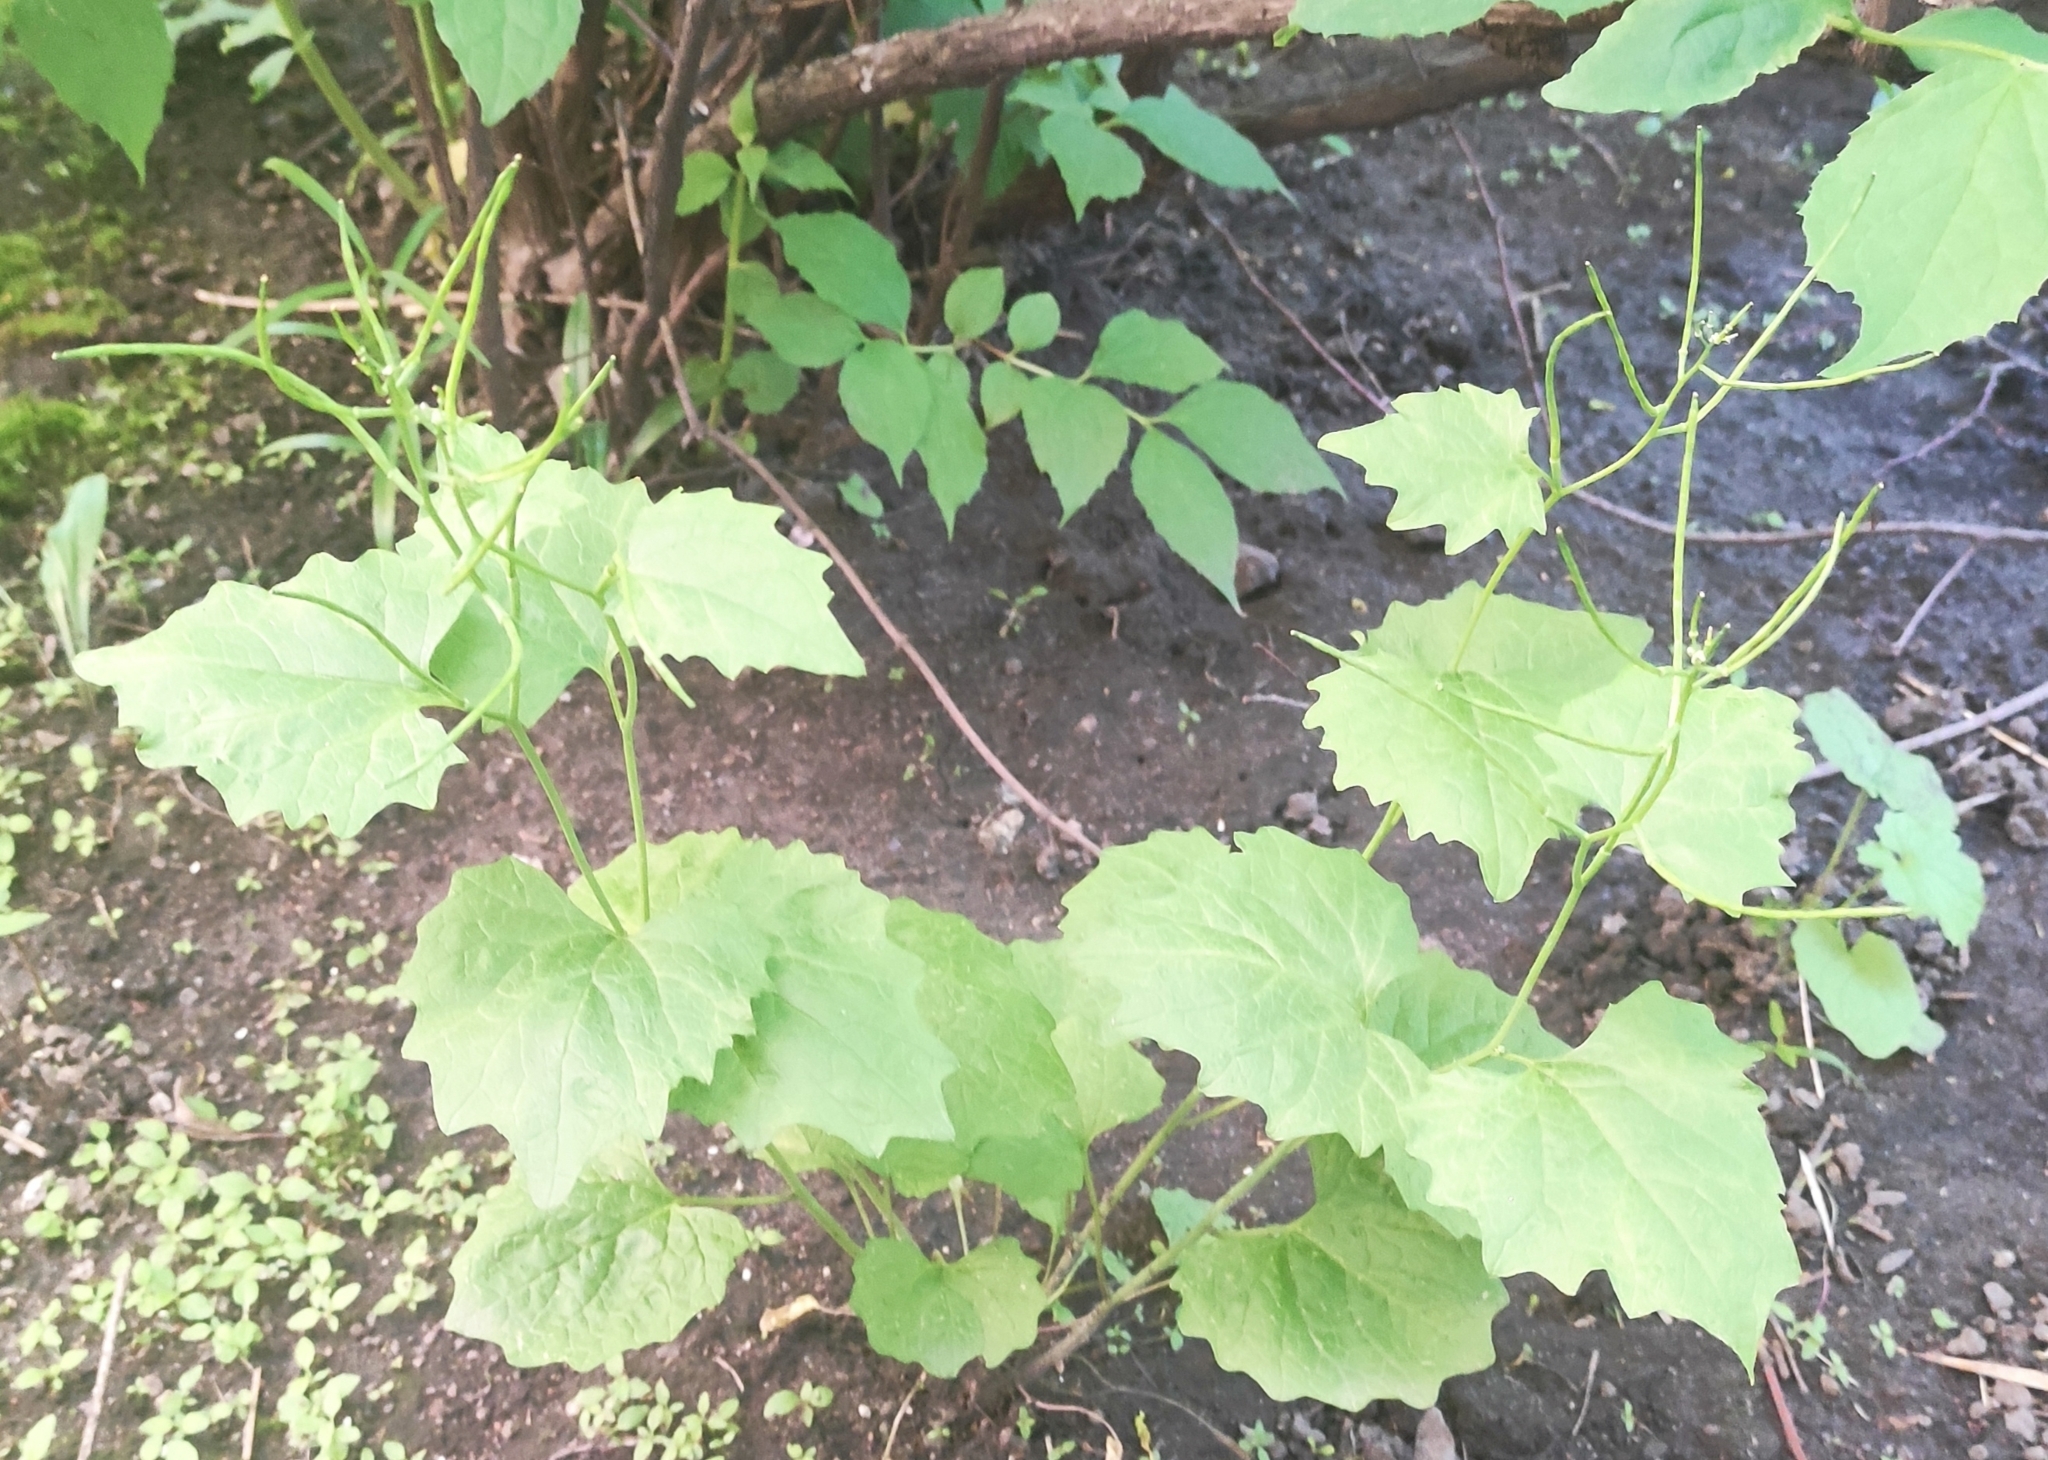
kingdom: Plantae
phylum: Tracheophyta
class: Magnoliopsida
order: Brassicales
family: Brassicaceae
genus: Alliaria
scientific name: Alliaria petiolata
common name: Garlic mustard
